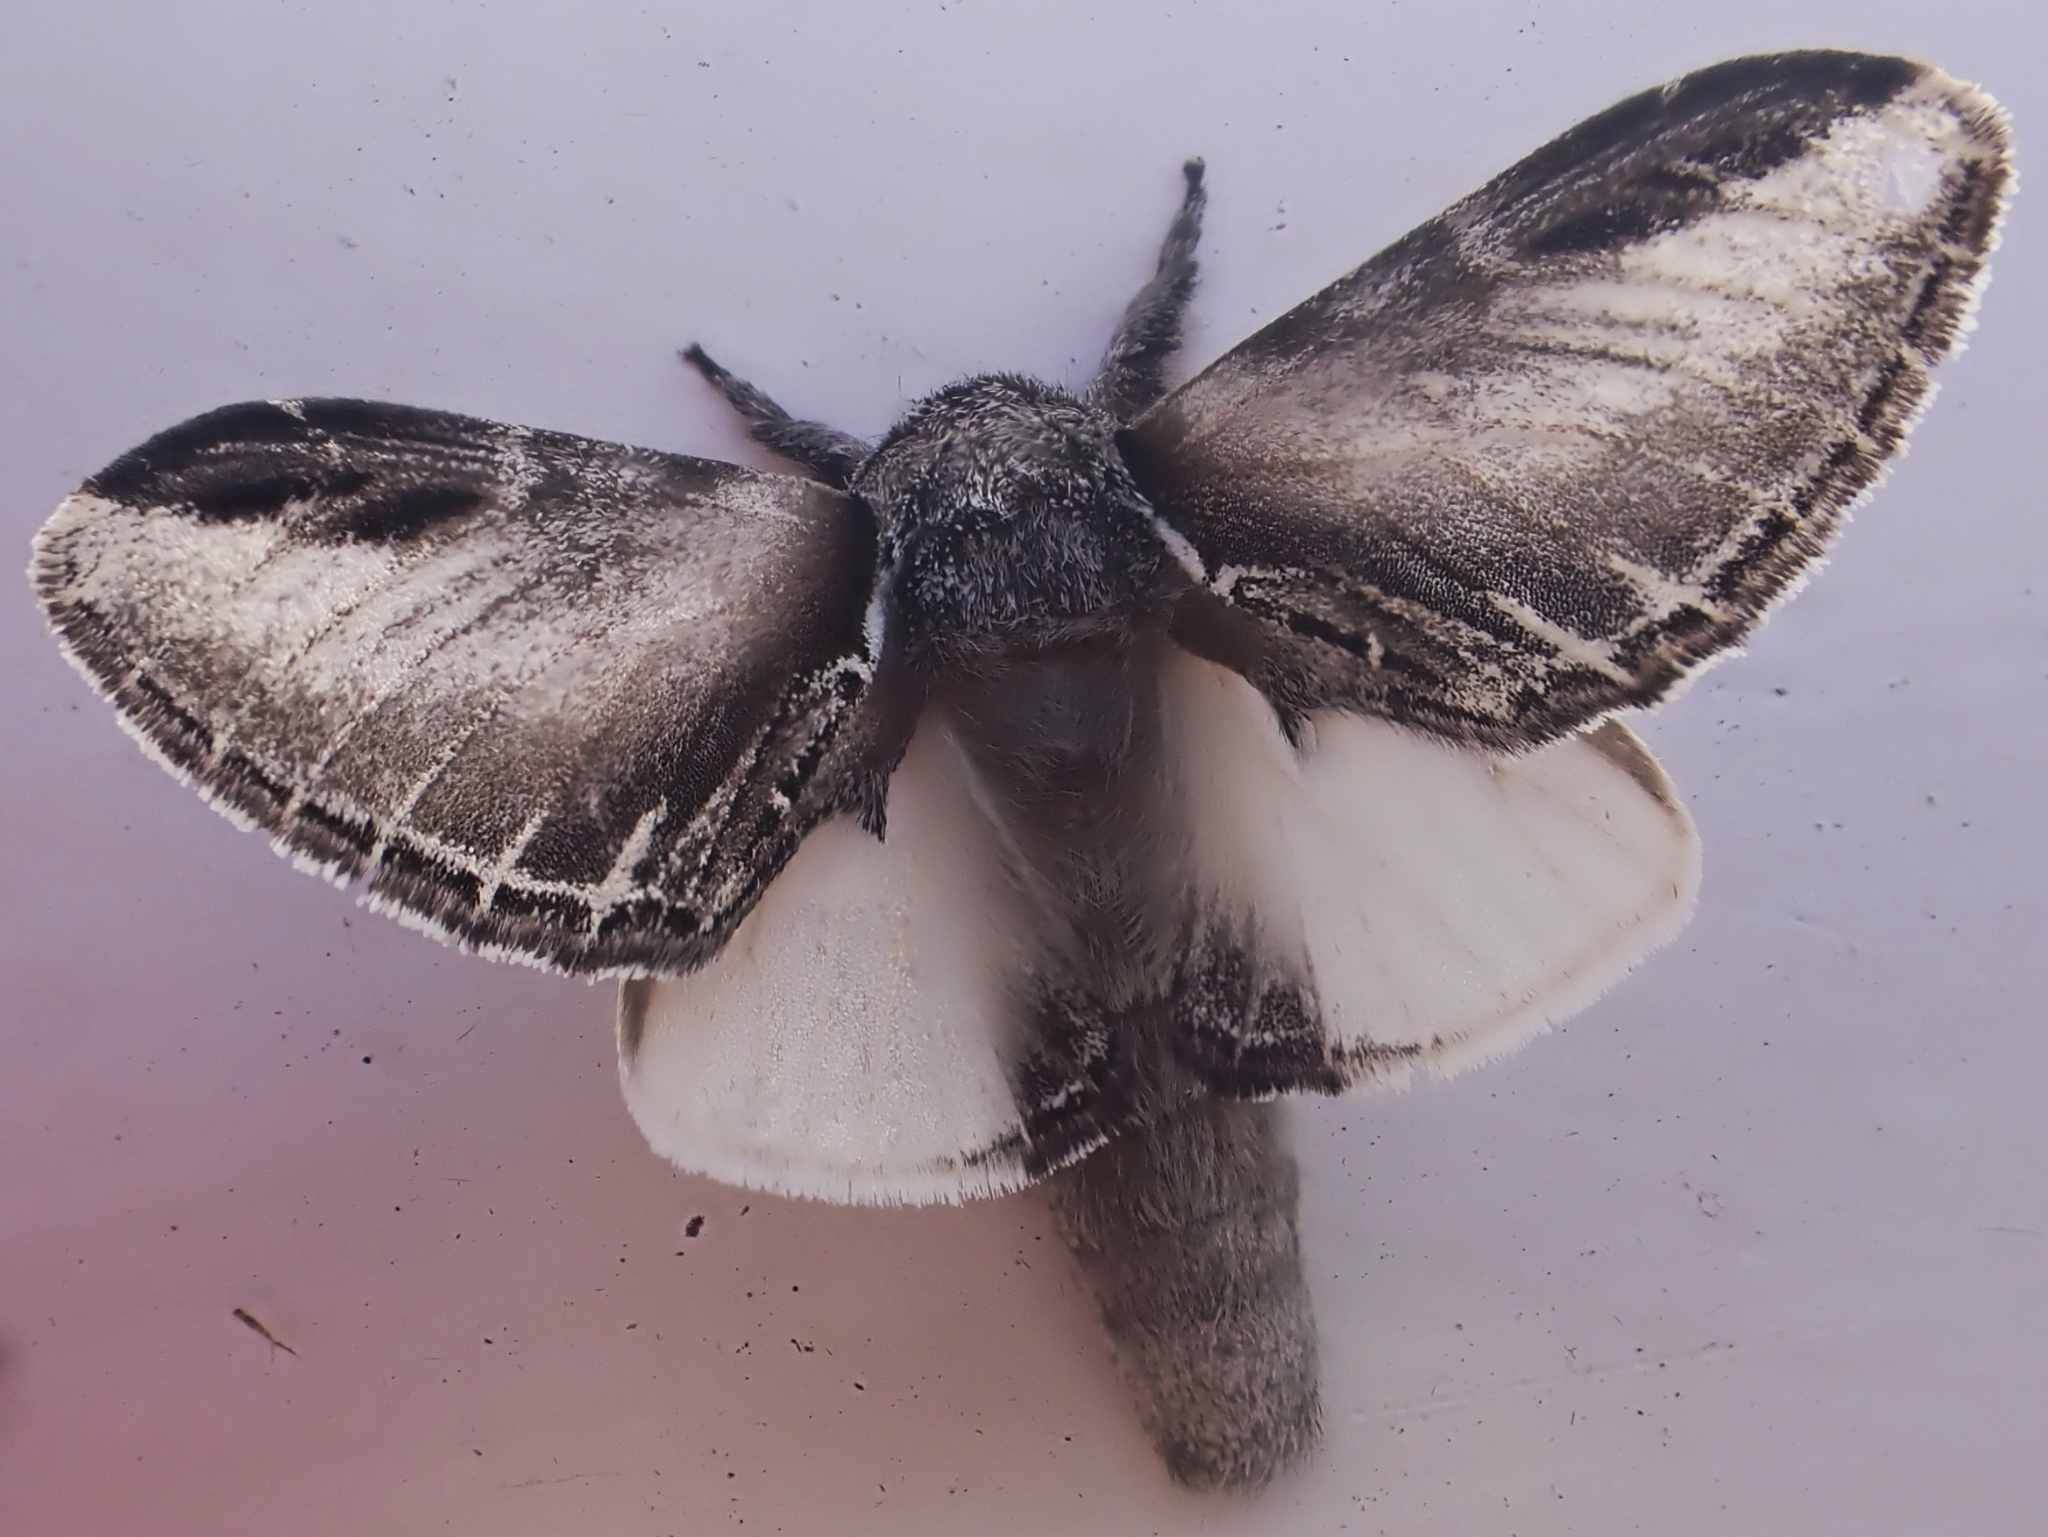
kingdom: Animalia
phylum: Arthropoda
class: Insecta
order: Lepidoptera
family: Notodontidae
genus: Pheosia
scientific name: Pheosia tremula
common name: Swallow prominent
